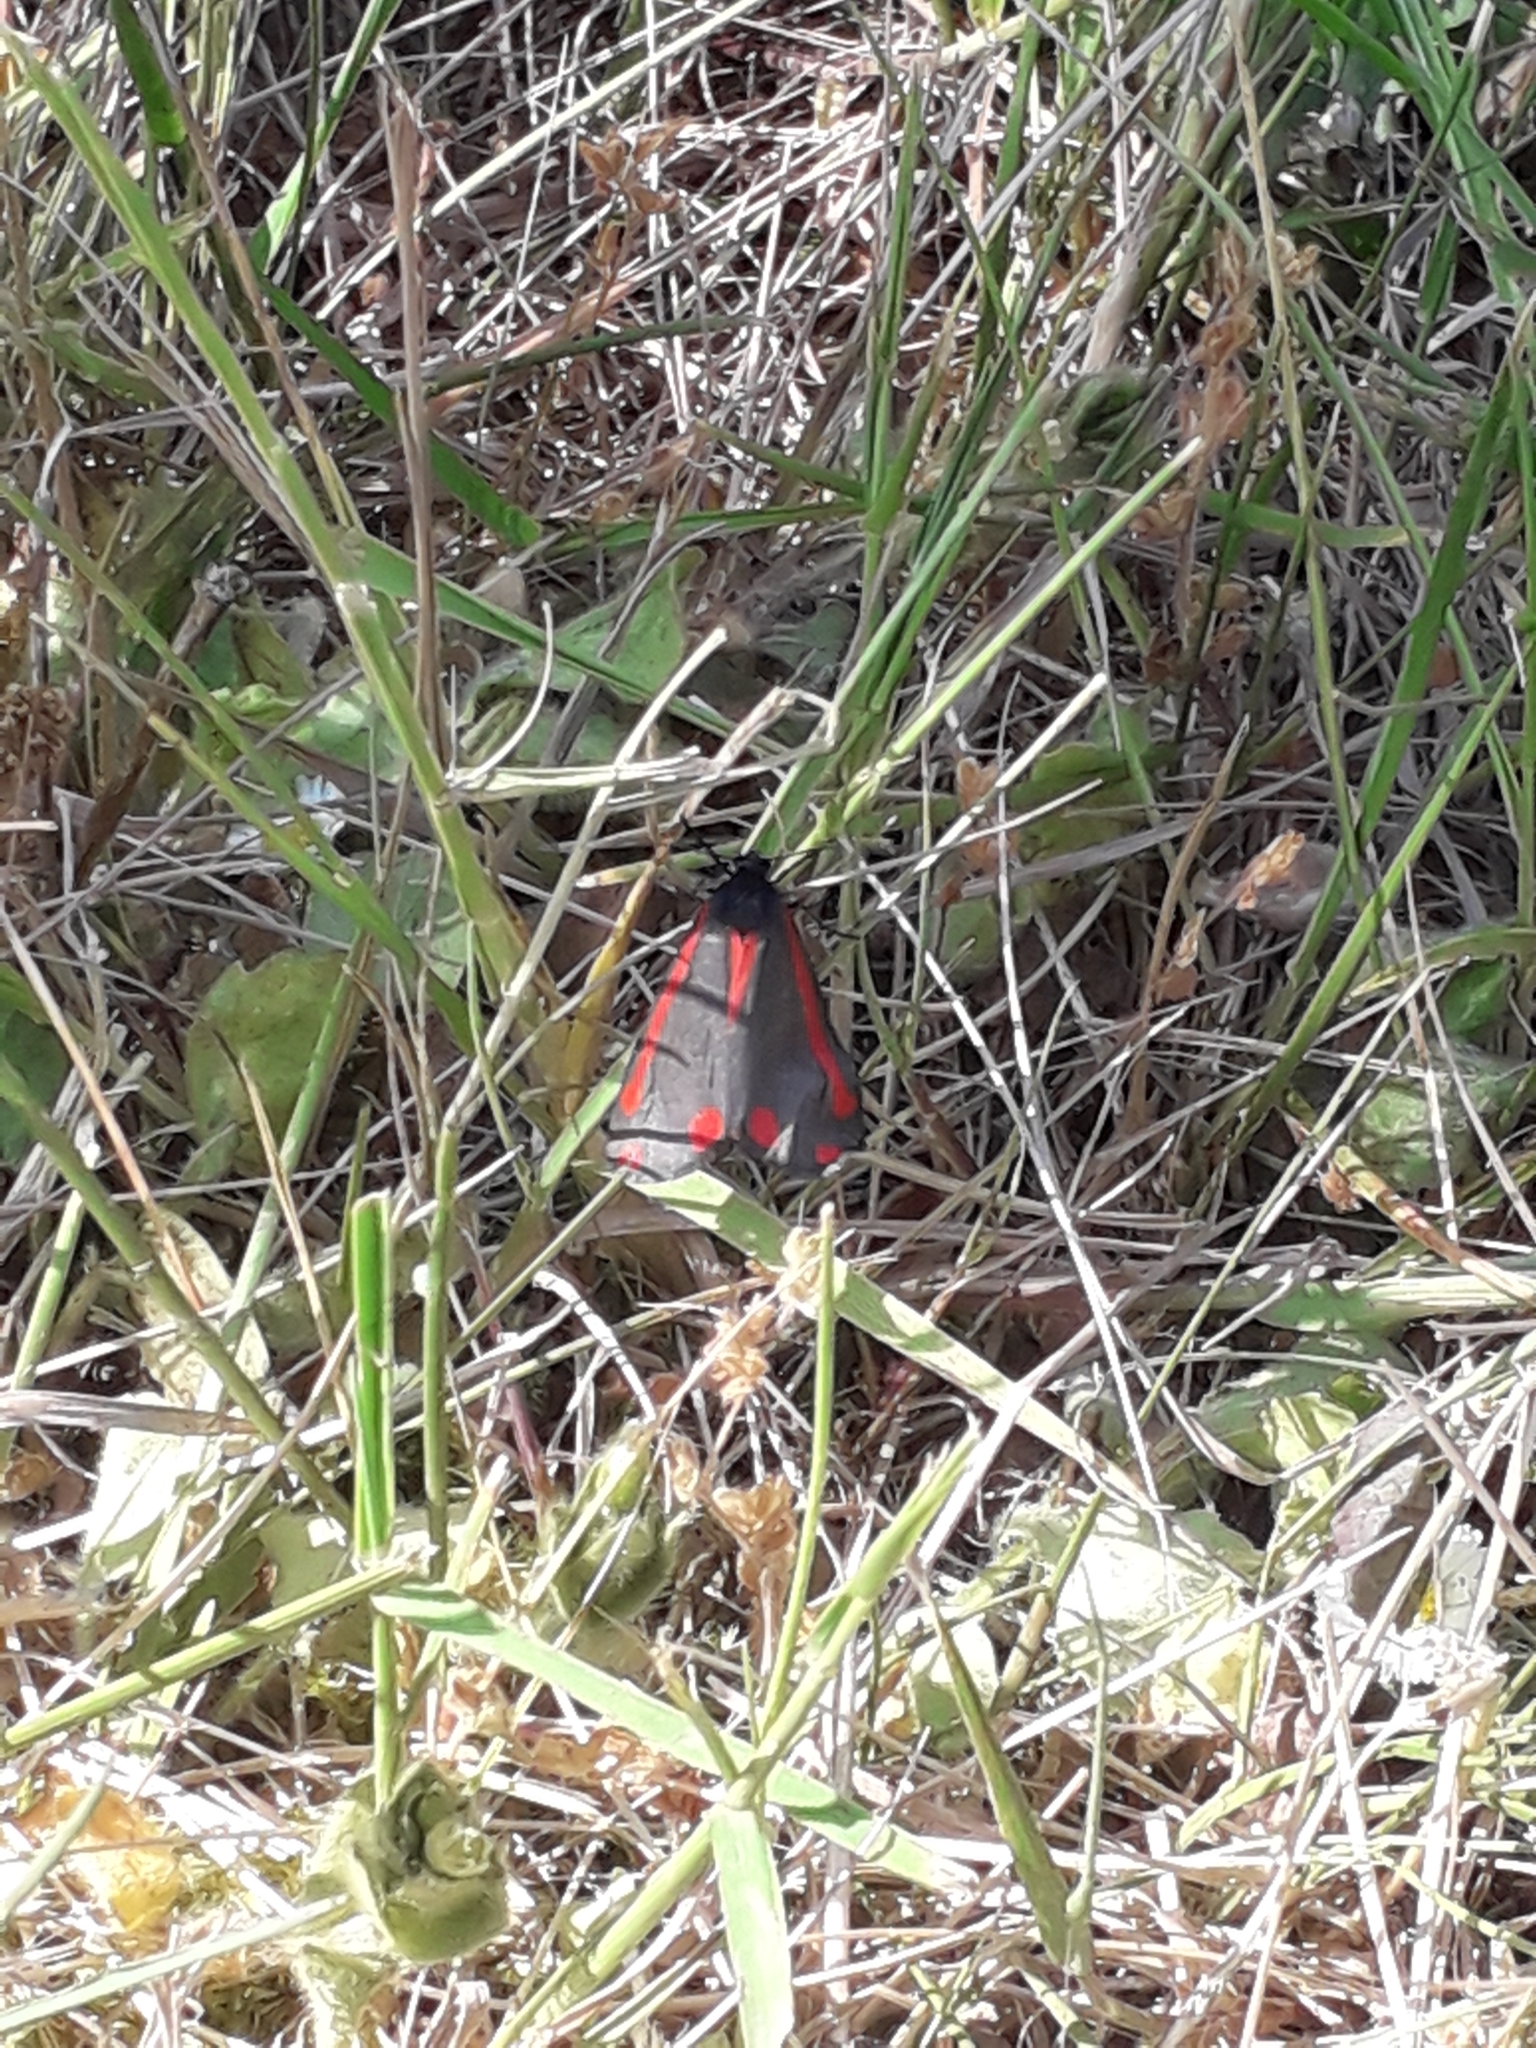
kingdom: Animalia
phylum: Arthropoda
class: Insecta
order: Lepidoptera
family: Erebidae
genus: Tyria
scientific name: Tyria jacobaeae
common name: Cinnabar
